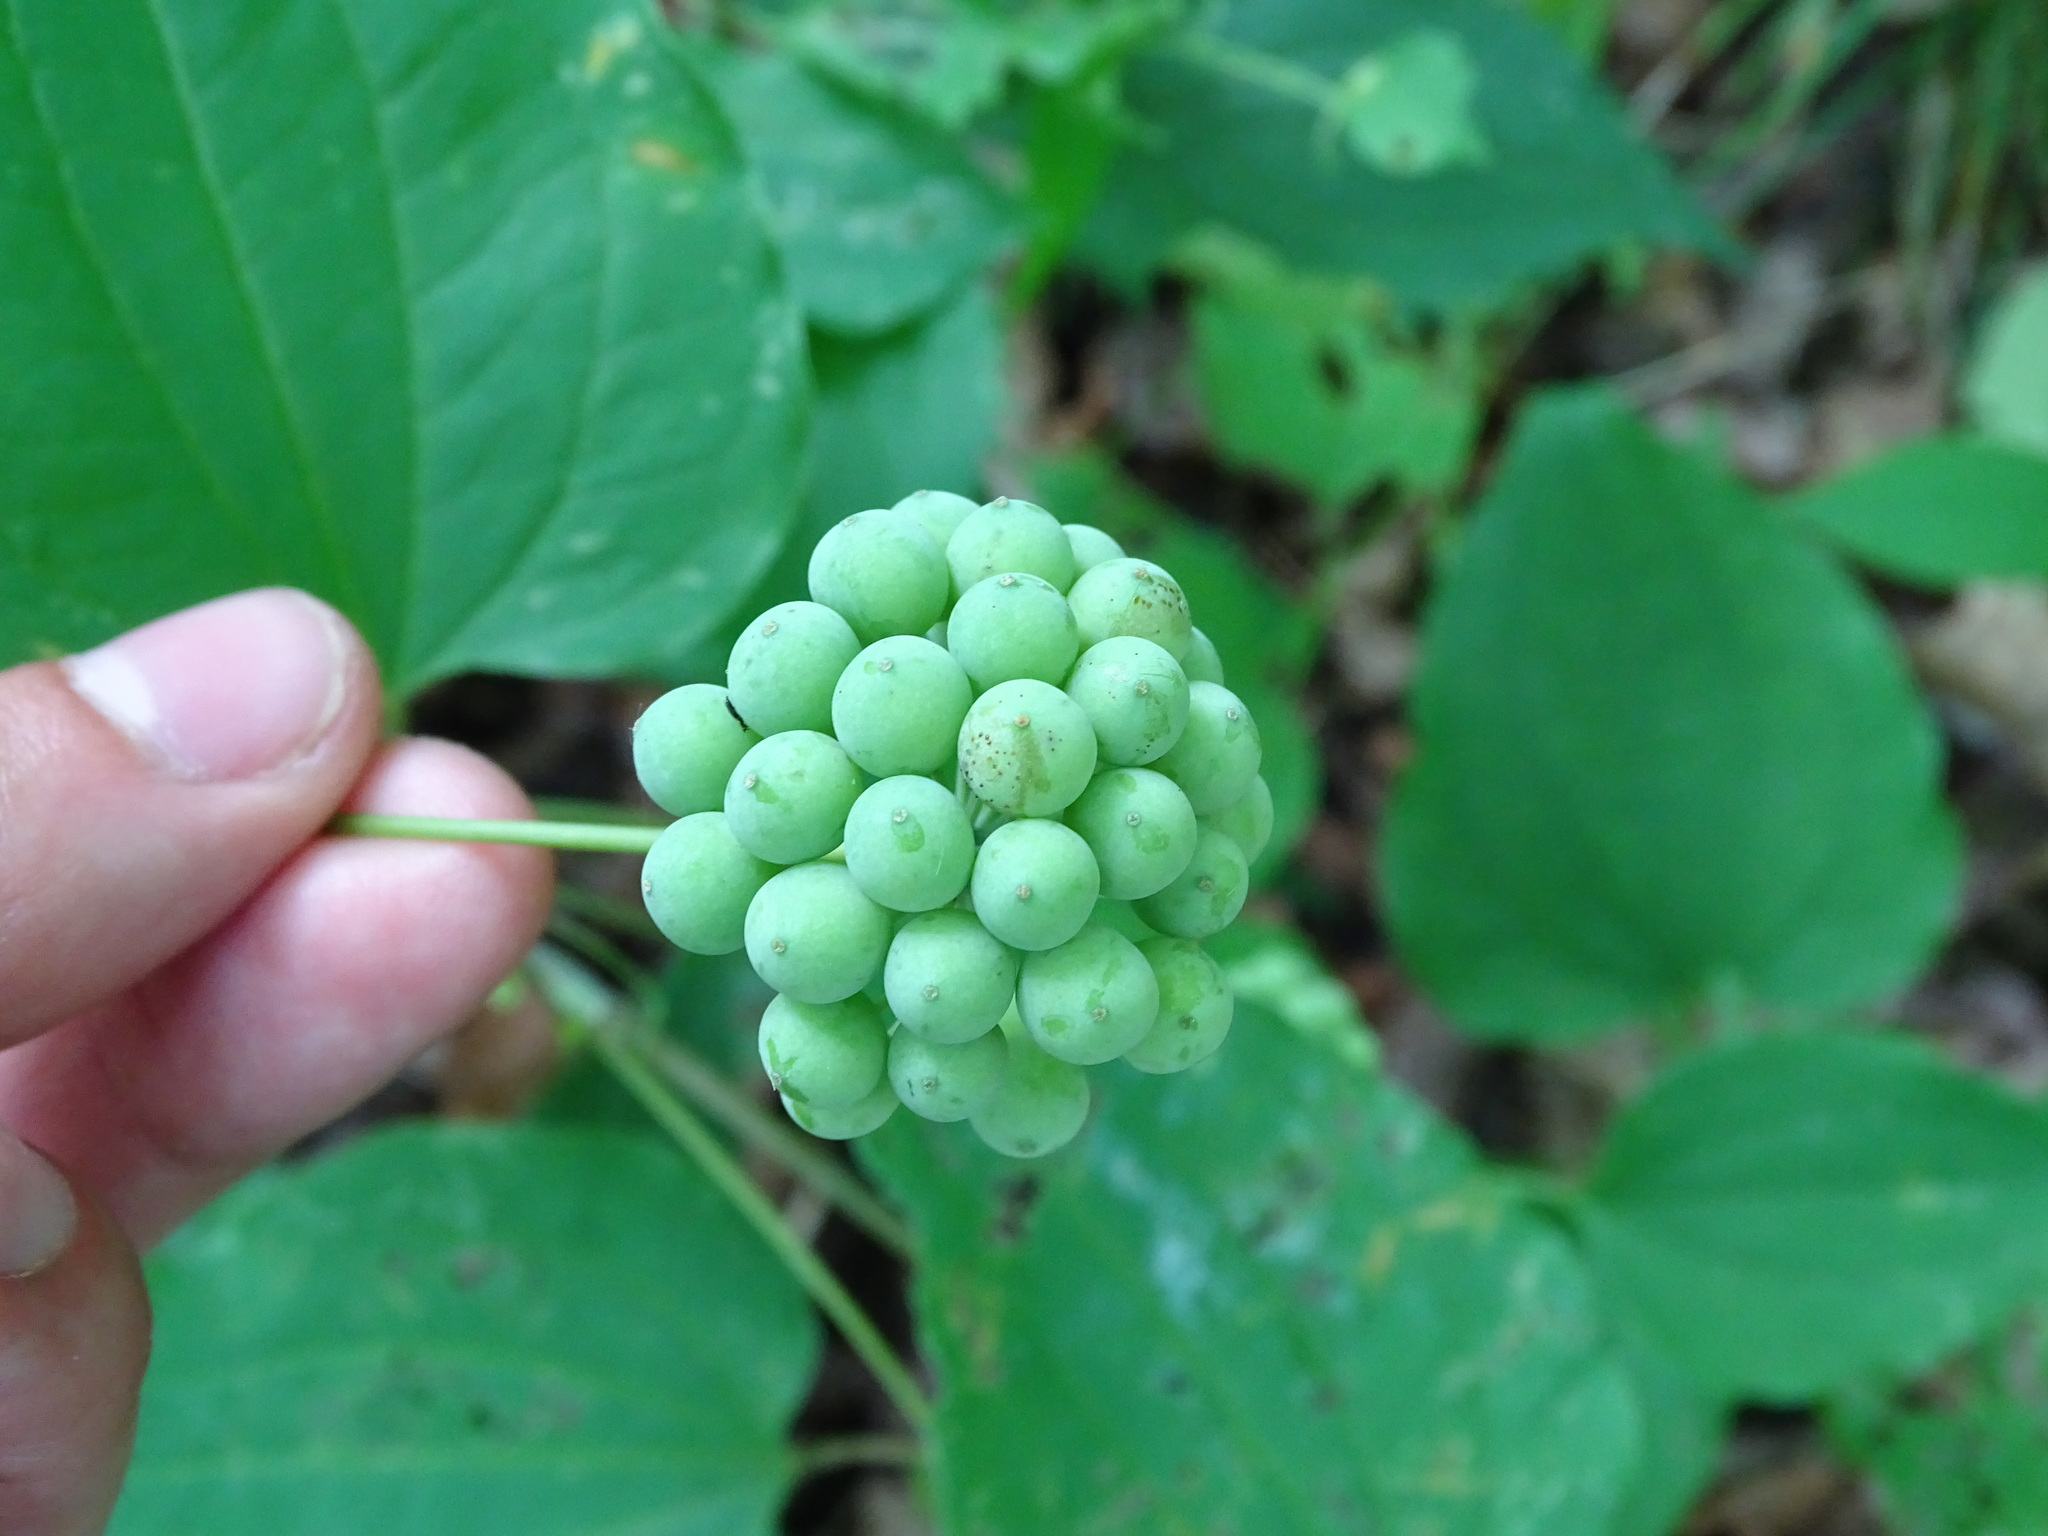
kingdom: Plantae
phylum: Tracheophyta
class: Liliopsida
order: Liliales
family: Smilacaceae
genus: Smilax
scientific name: Smilax herbacea
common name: Jacob's-ladder
